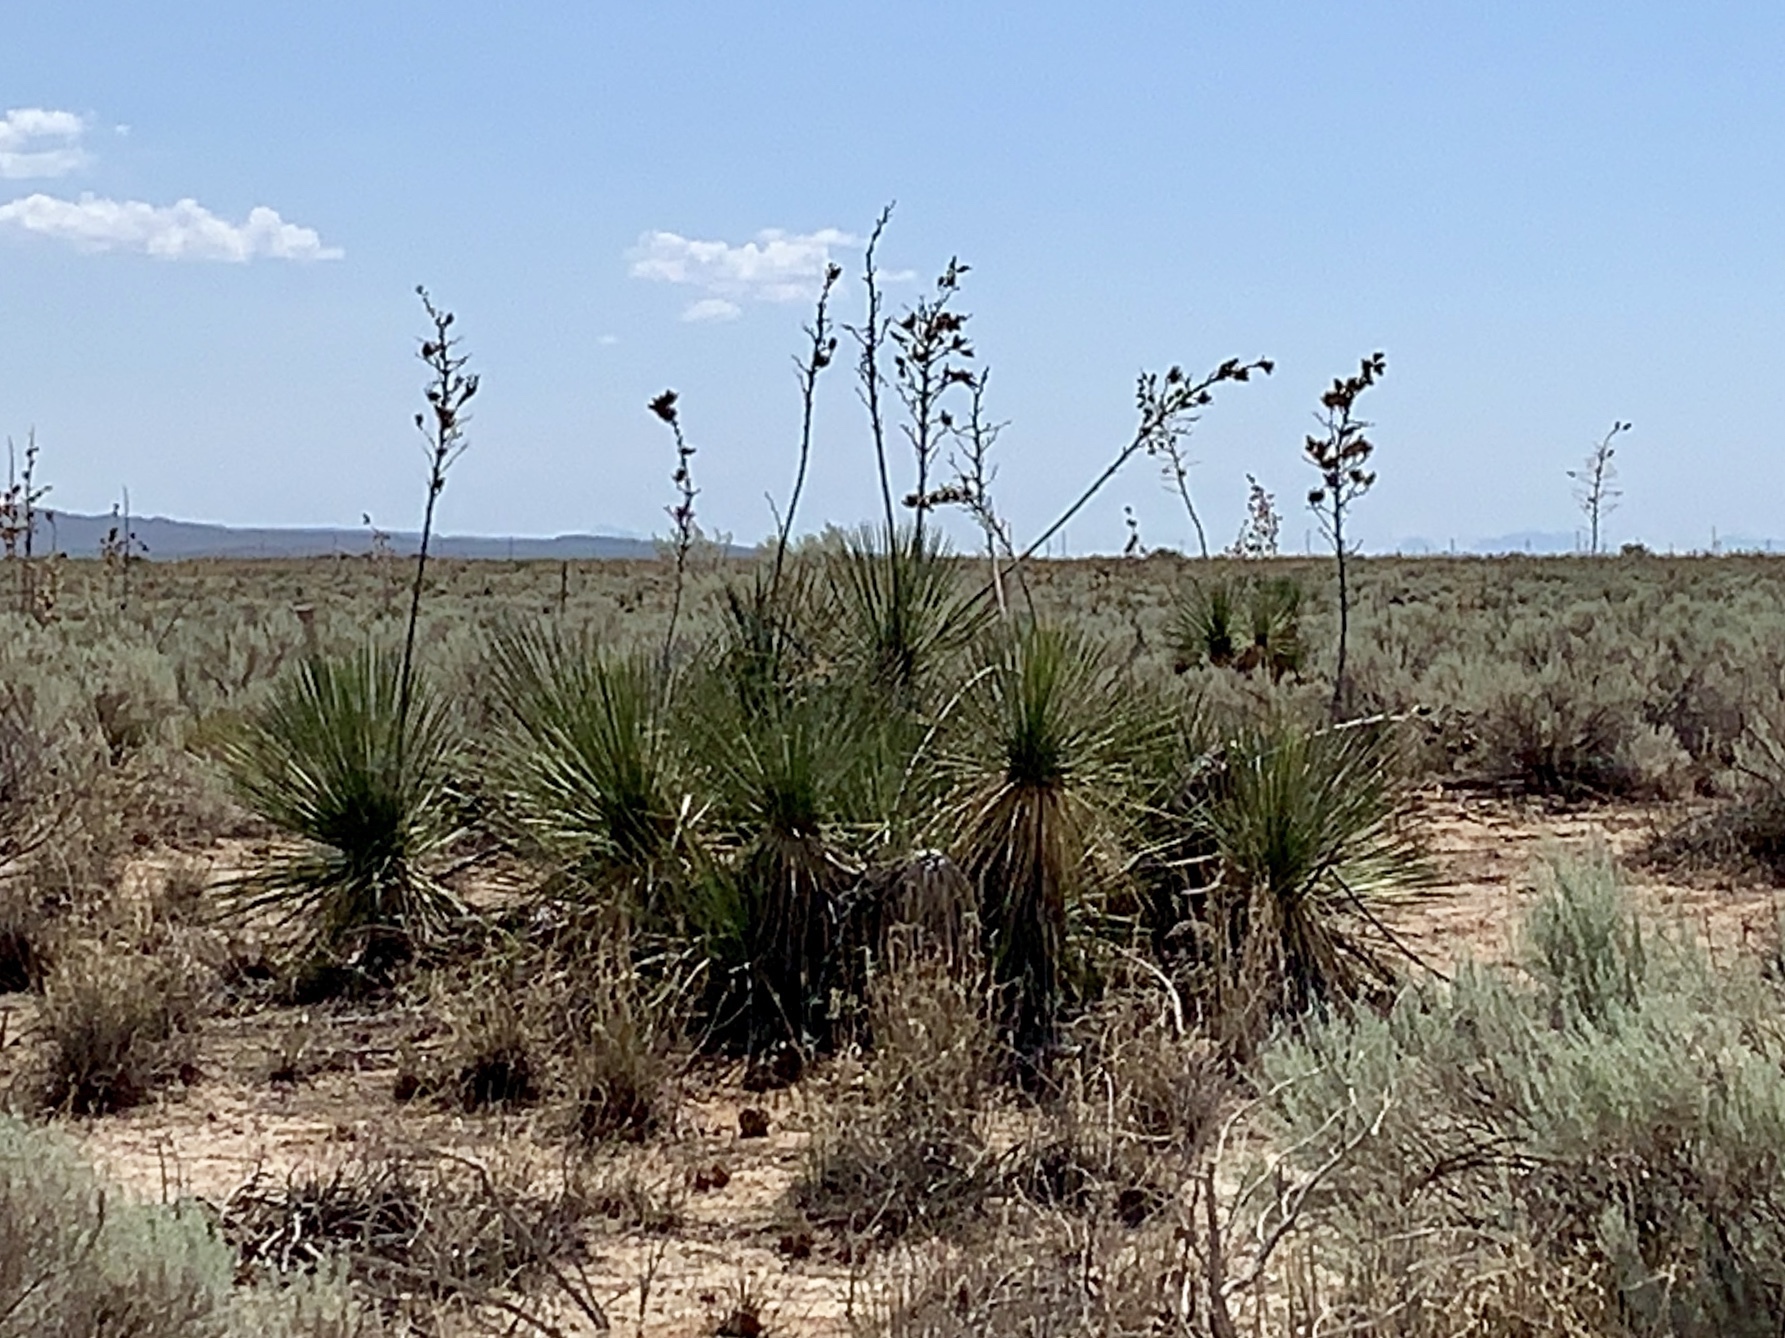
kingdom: Plantae
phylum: Tracheophyta
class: Liliopsida
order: Asparagales
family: Asparagaceae
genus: Yucca
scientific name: Yucca elata
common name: Palmella
